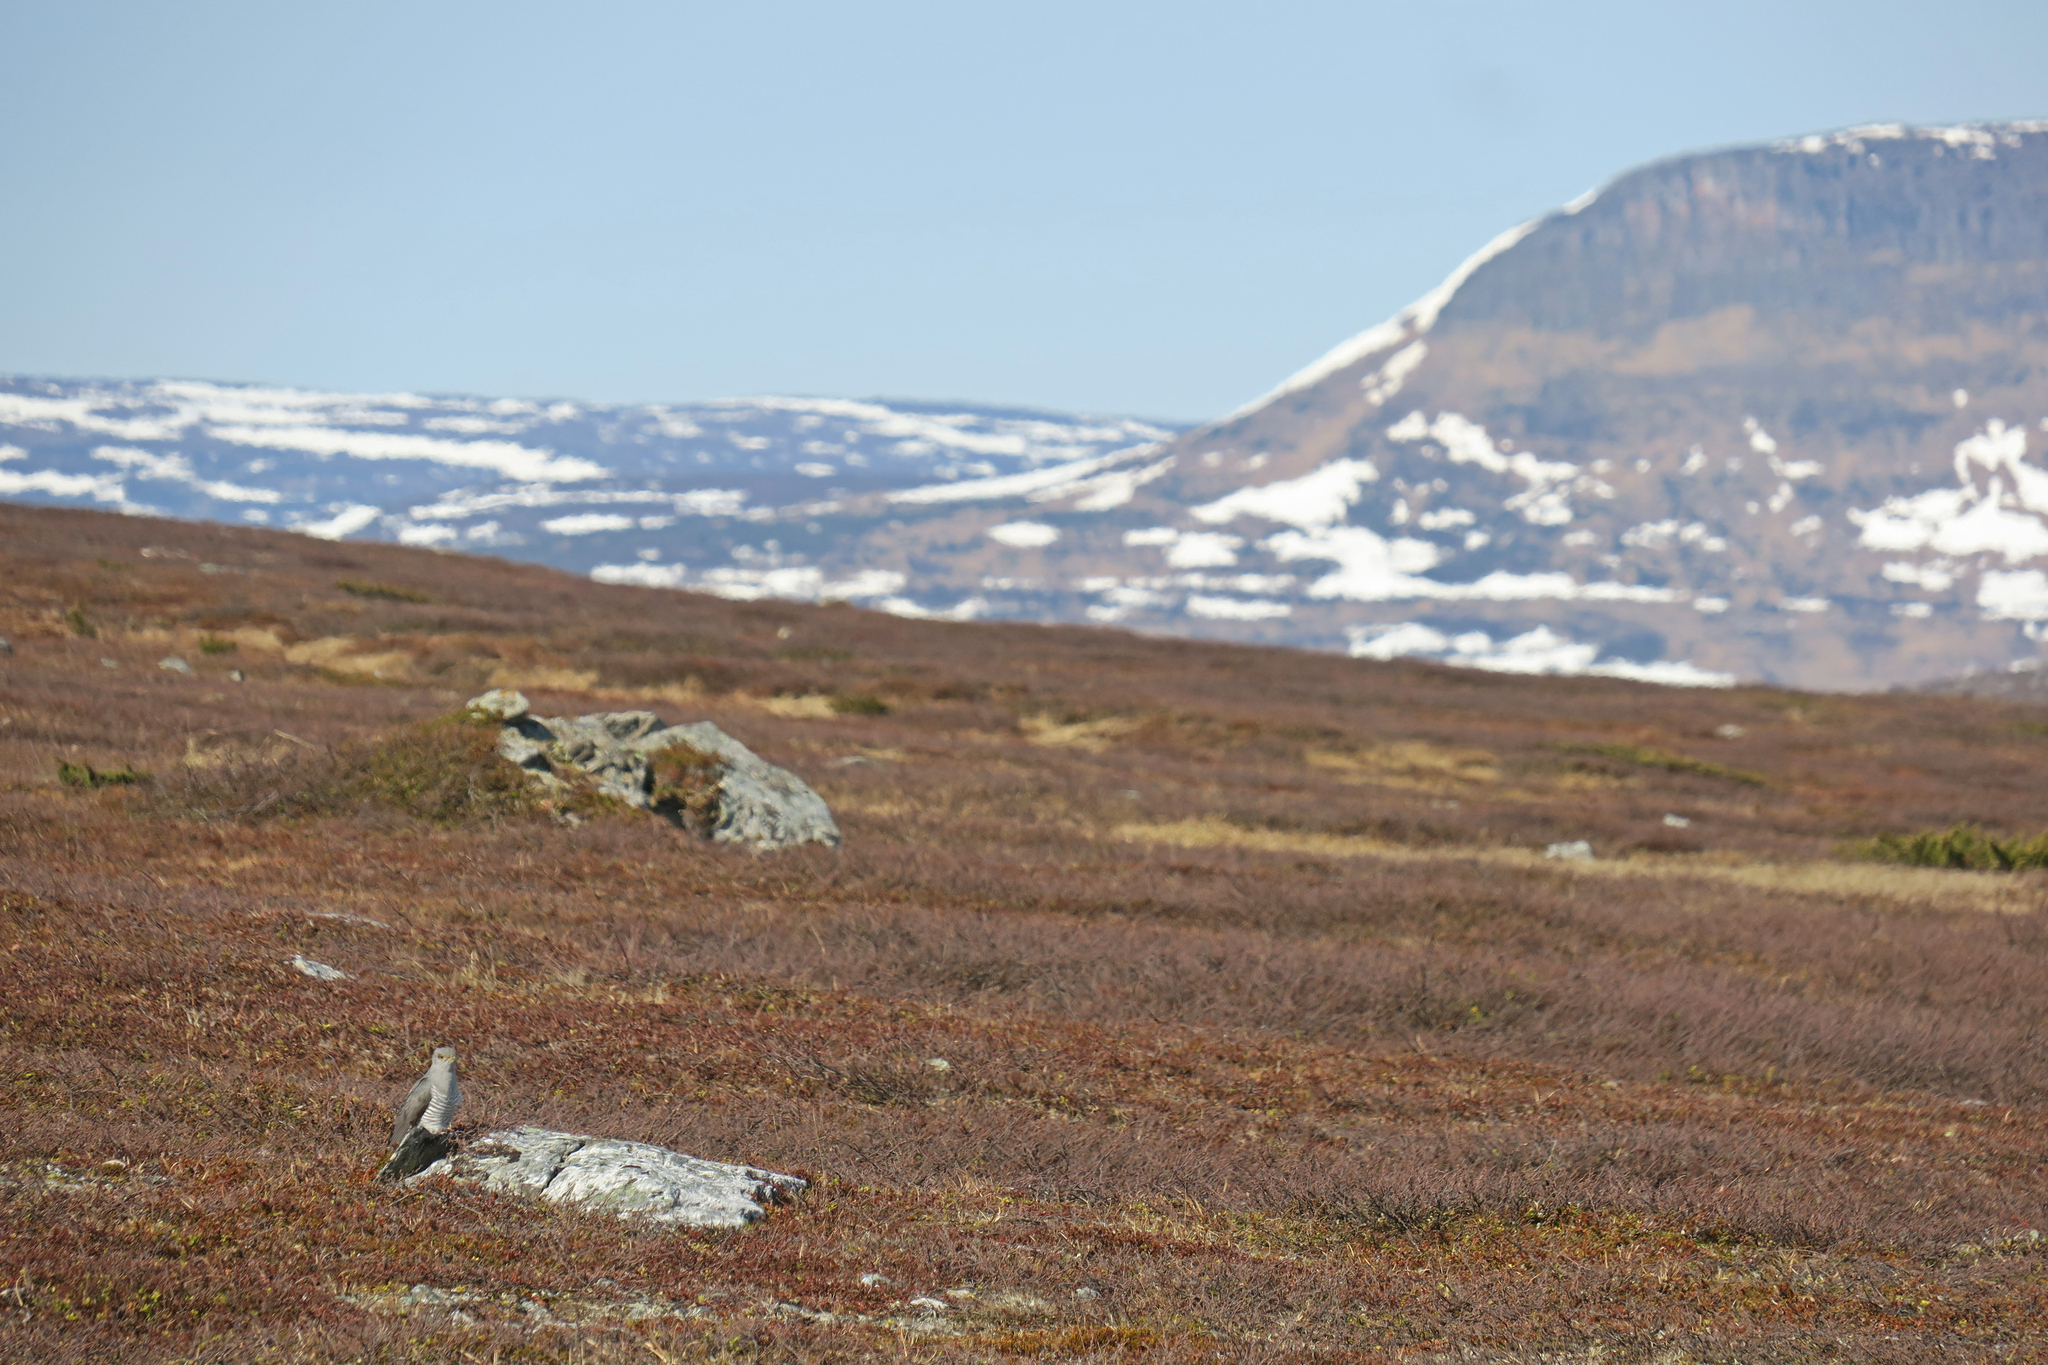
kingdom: Animalia
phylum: Chordata
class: Aves
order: Cuculiformes
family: Cuculidae
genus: Cuculus
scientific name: Cuculus canorus
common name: Common cuckoo
